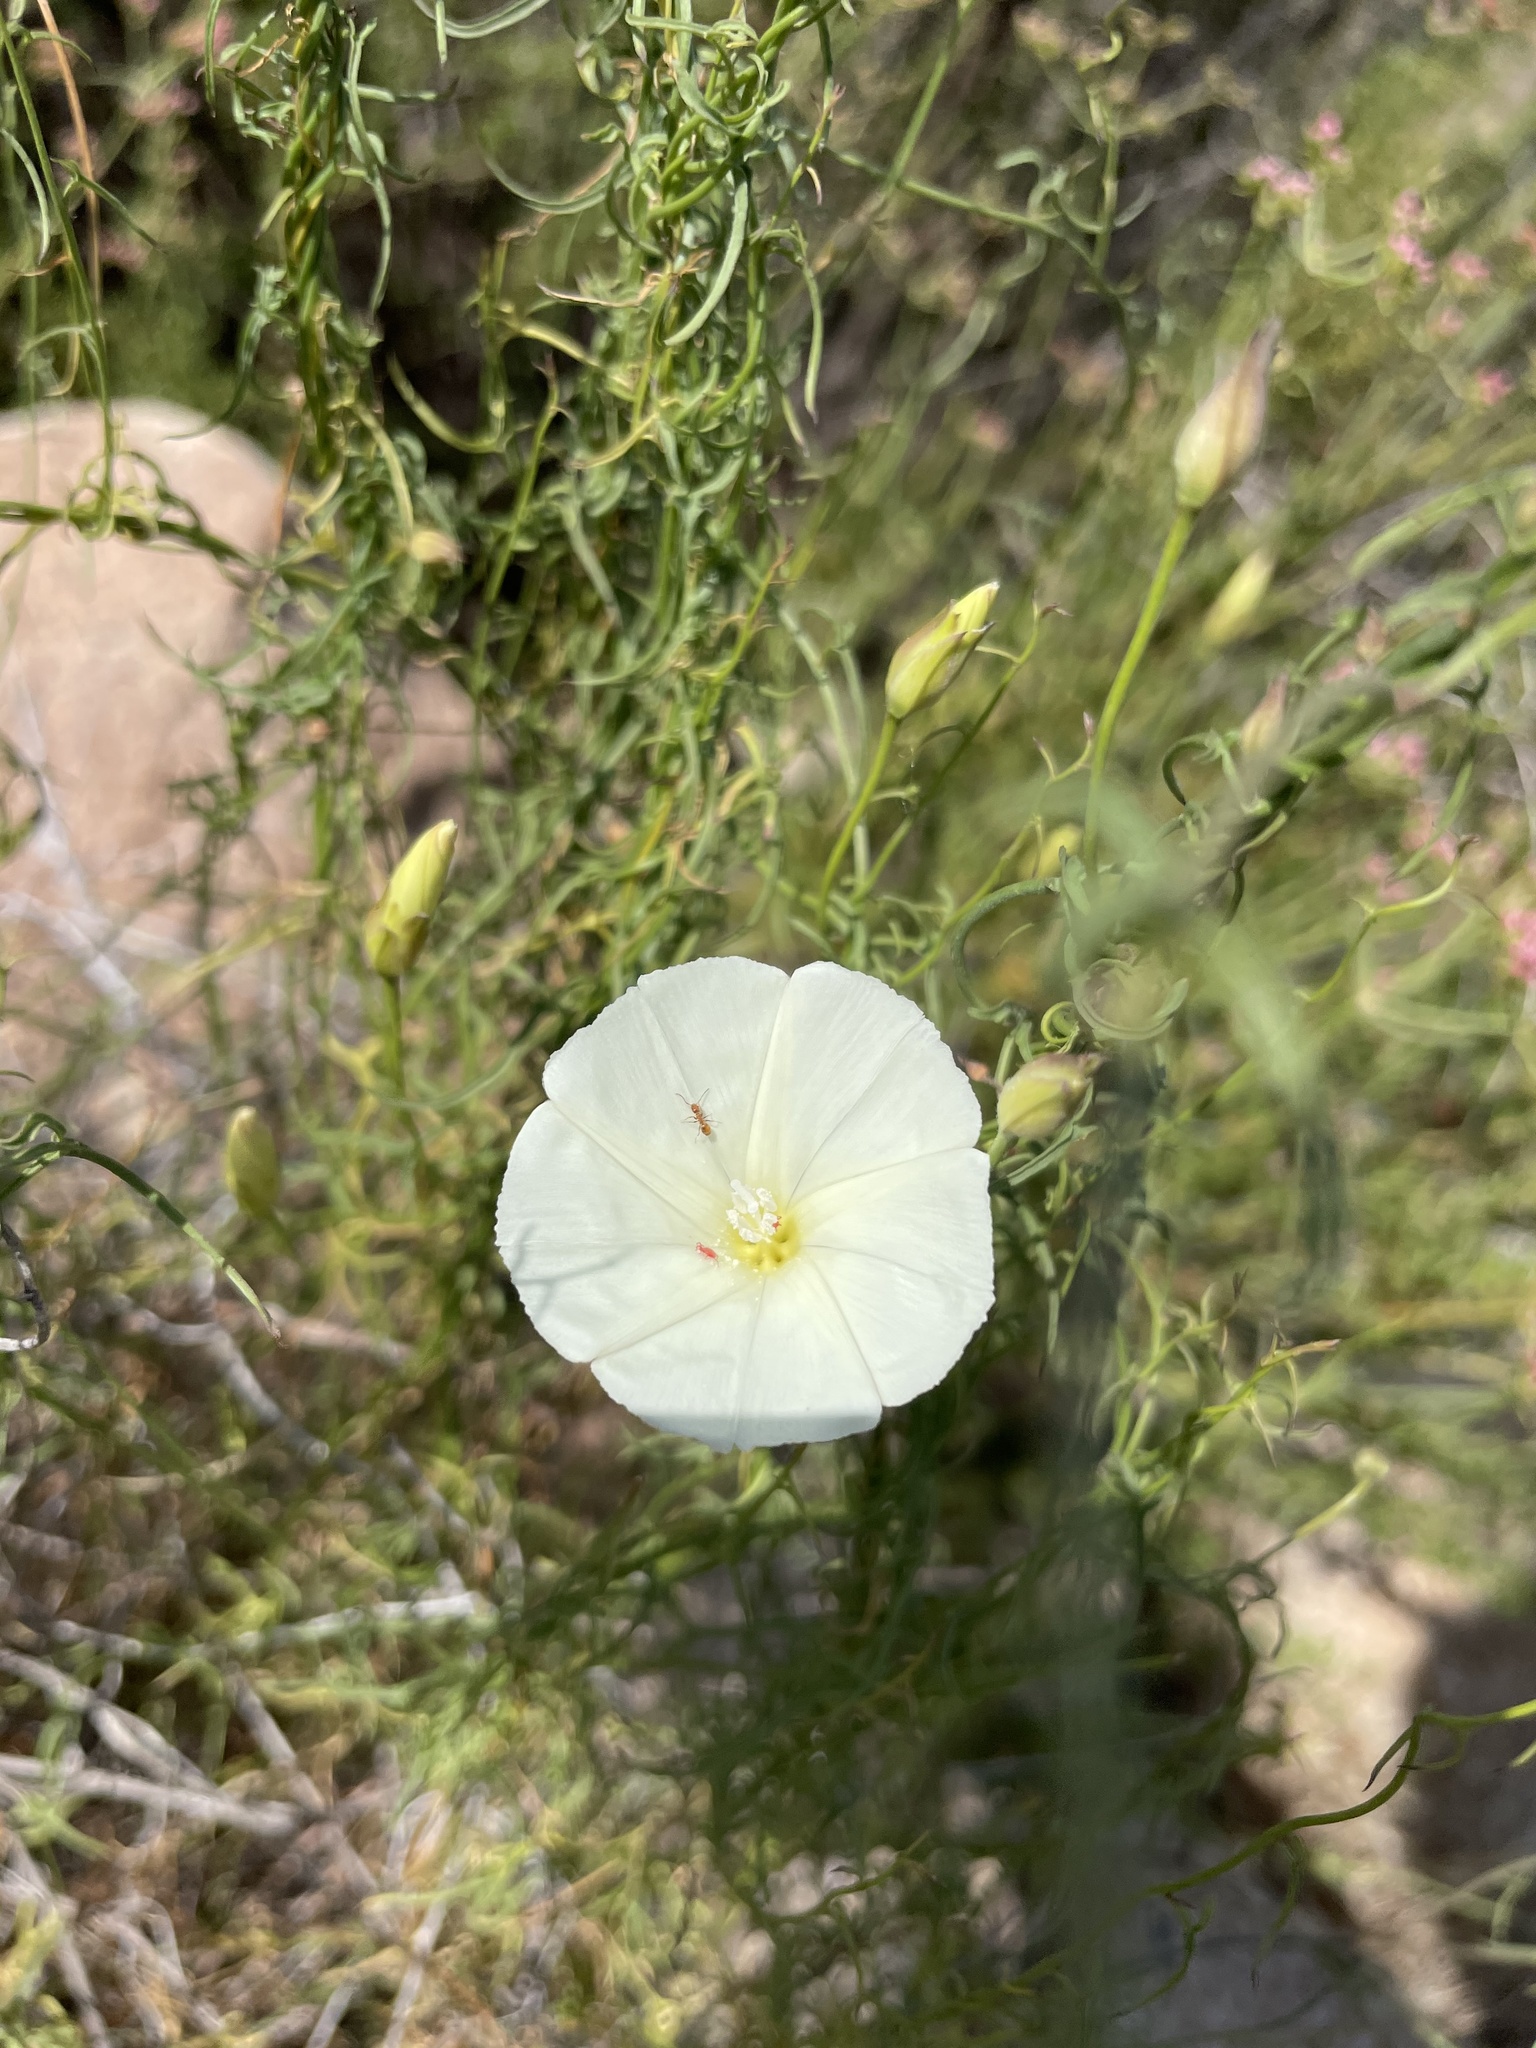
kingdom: Plantae
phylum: Tracheophyta
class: Magnoliopsida
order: Solanales
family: Convolvulaceae
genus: Calystegia
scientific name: Calystegia macrostegia
